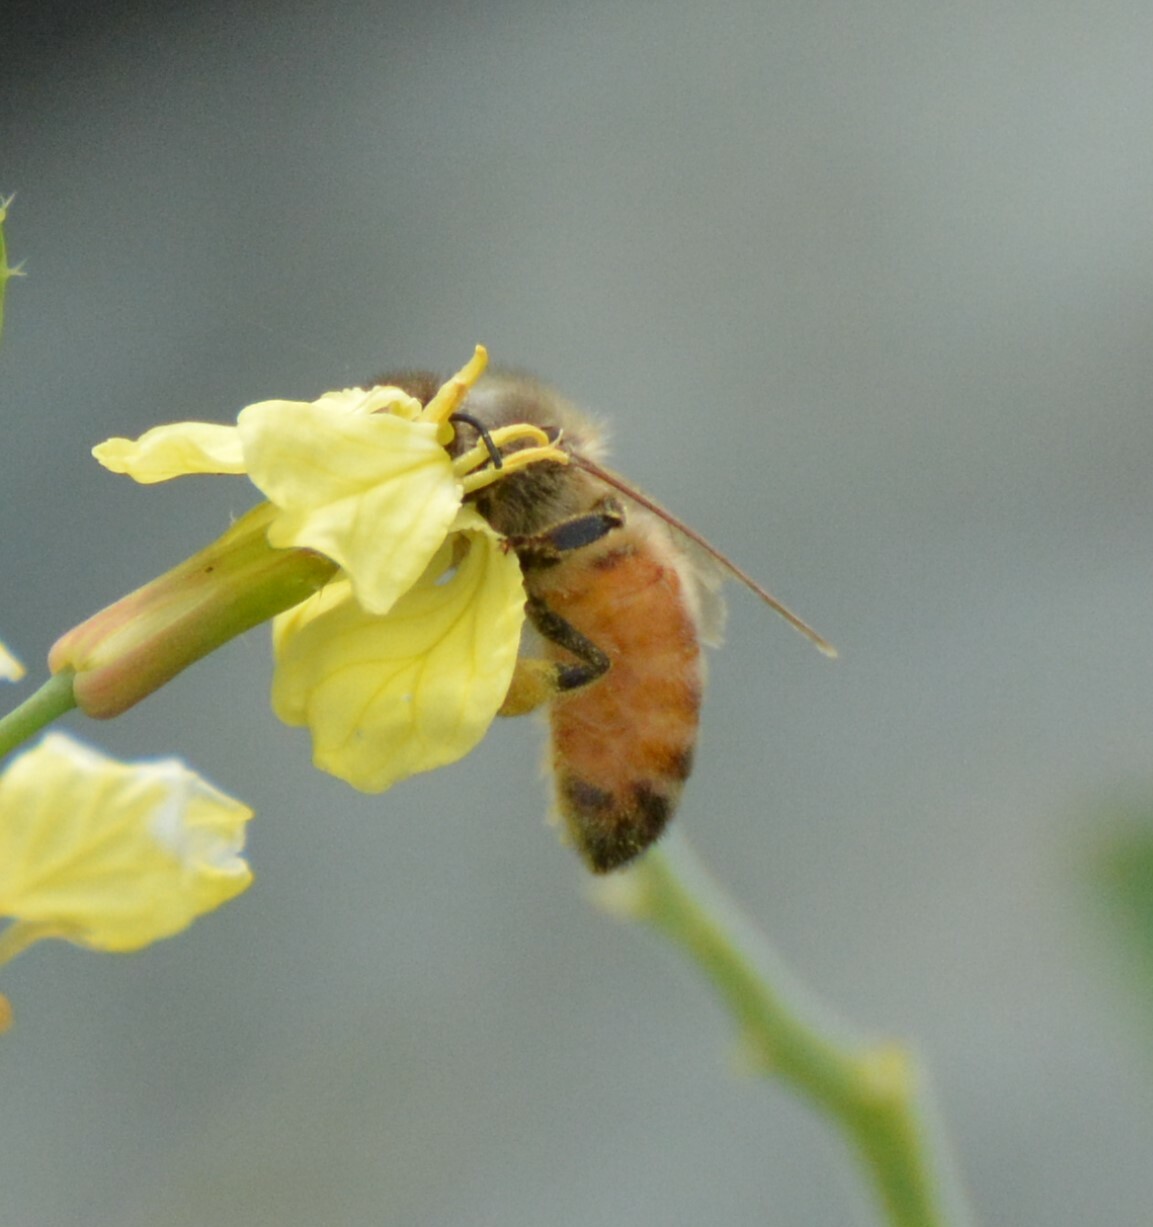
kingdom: Animalia
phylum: Arthropoda
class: Insecta
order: Hymenoptera
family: Apidae
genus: Apis
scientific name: Apis mellifera
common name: Honey bee
